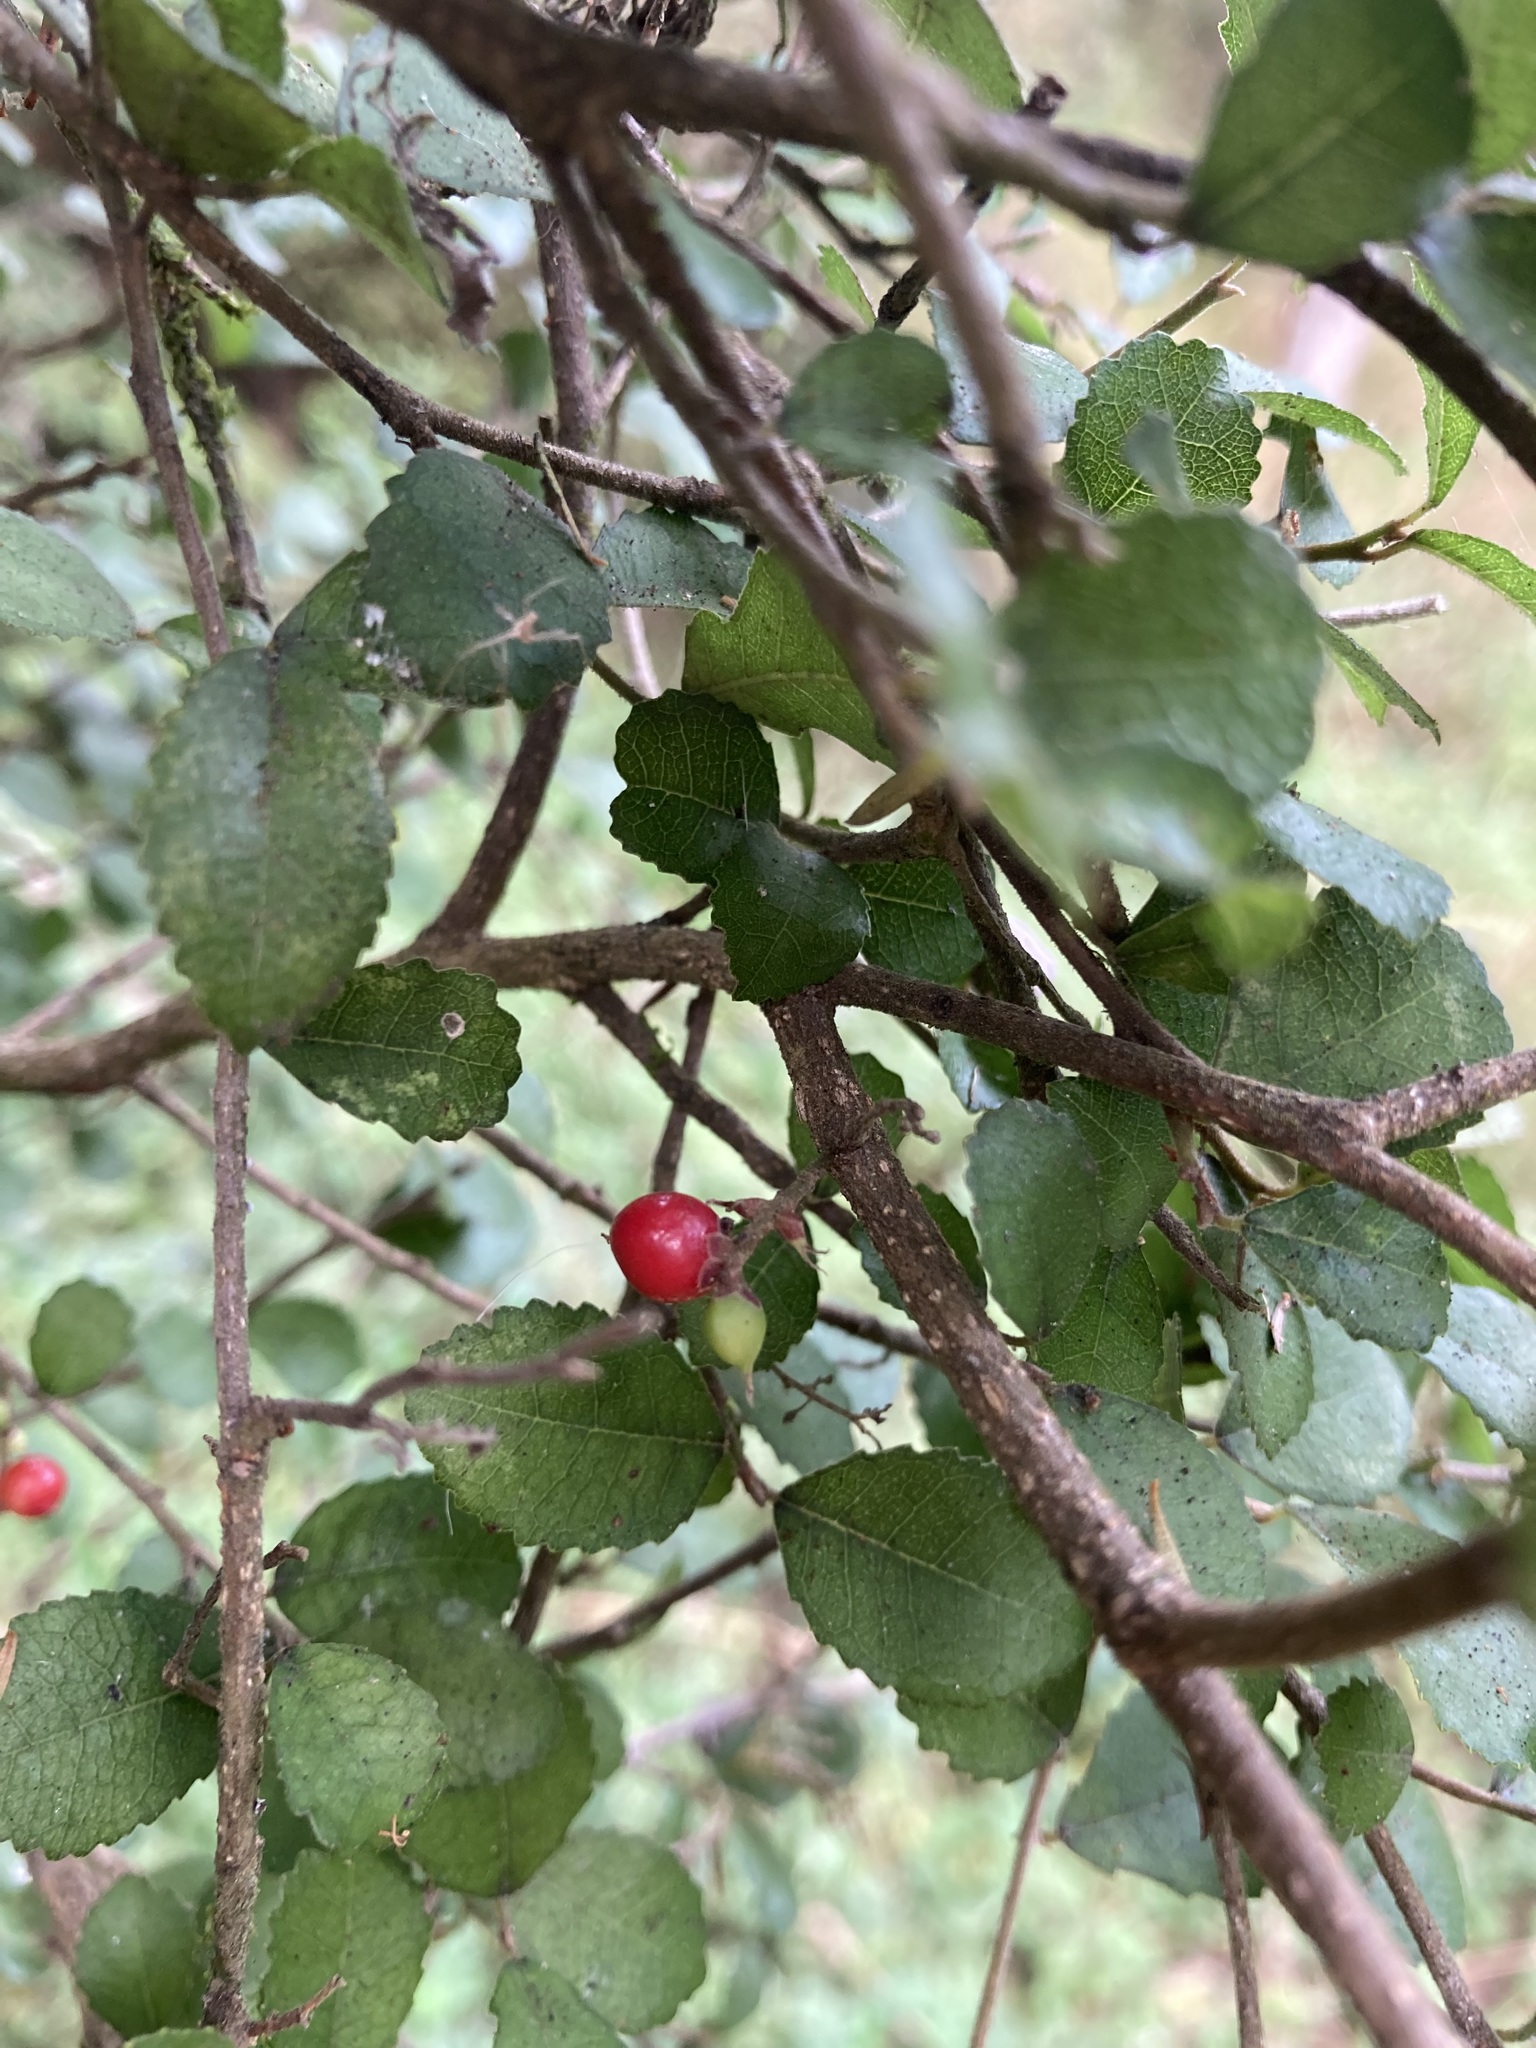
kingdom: Plantae
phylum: Tracheophyta
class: Magnoliopsida
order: Rosales
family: Moraceae
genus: Paratrophis
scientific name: Paratrophis microphylla
